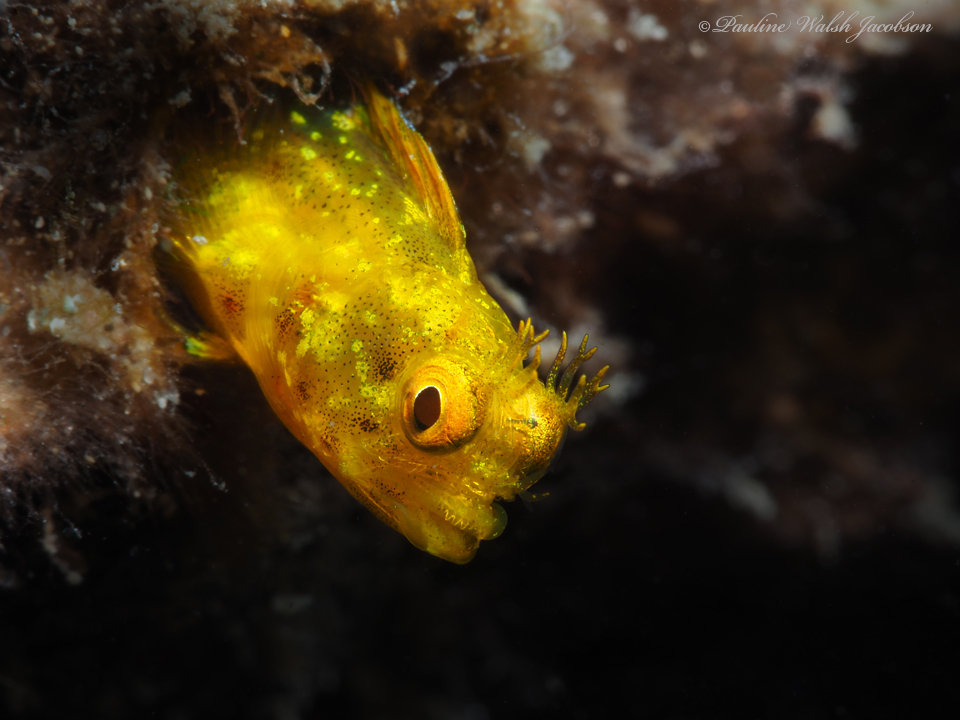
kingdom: Animalia
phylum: Chordata
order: Perciformes
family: Chaenopsidae
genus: Acanthemblemaria
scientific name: Acanthemblemaria aspera
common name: Roughhead blenny
